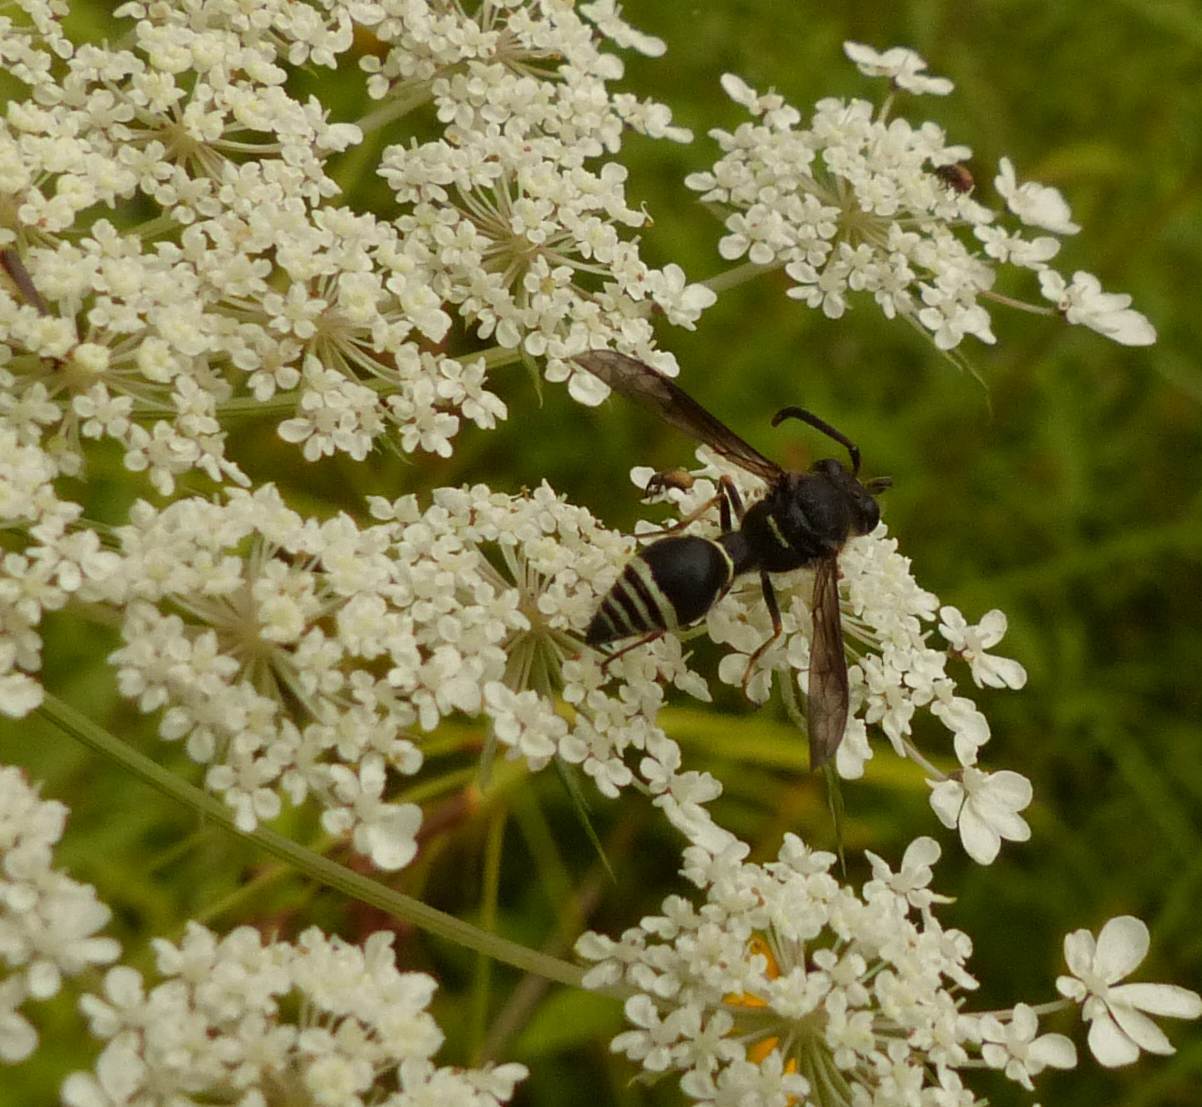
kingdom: Animalia
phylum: Arthropoda
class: Insecta
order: Hymenoptera
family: Vespidae
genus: Eumenes
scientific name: Eumenes crucifera
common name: Cross potter wasp
